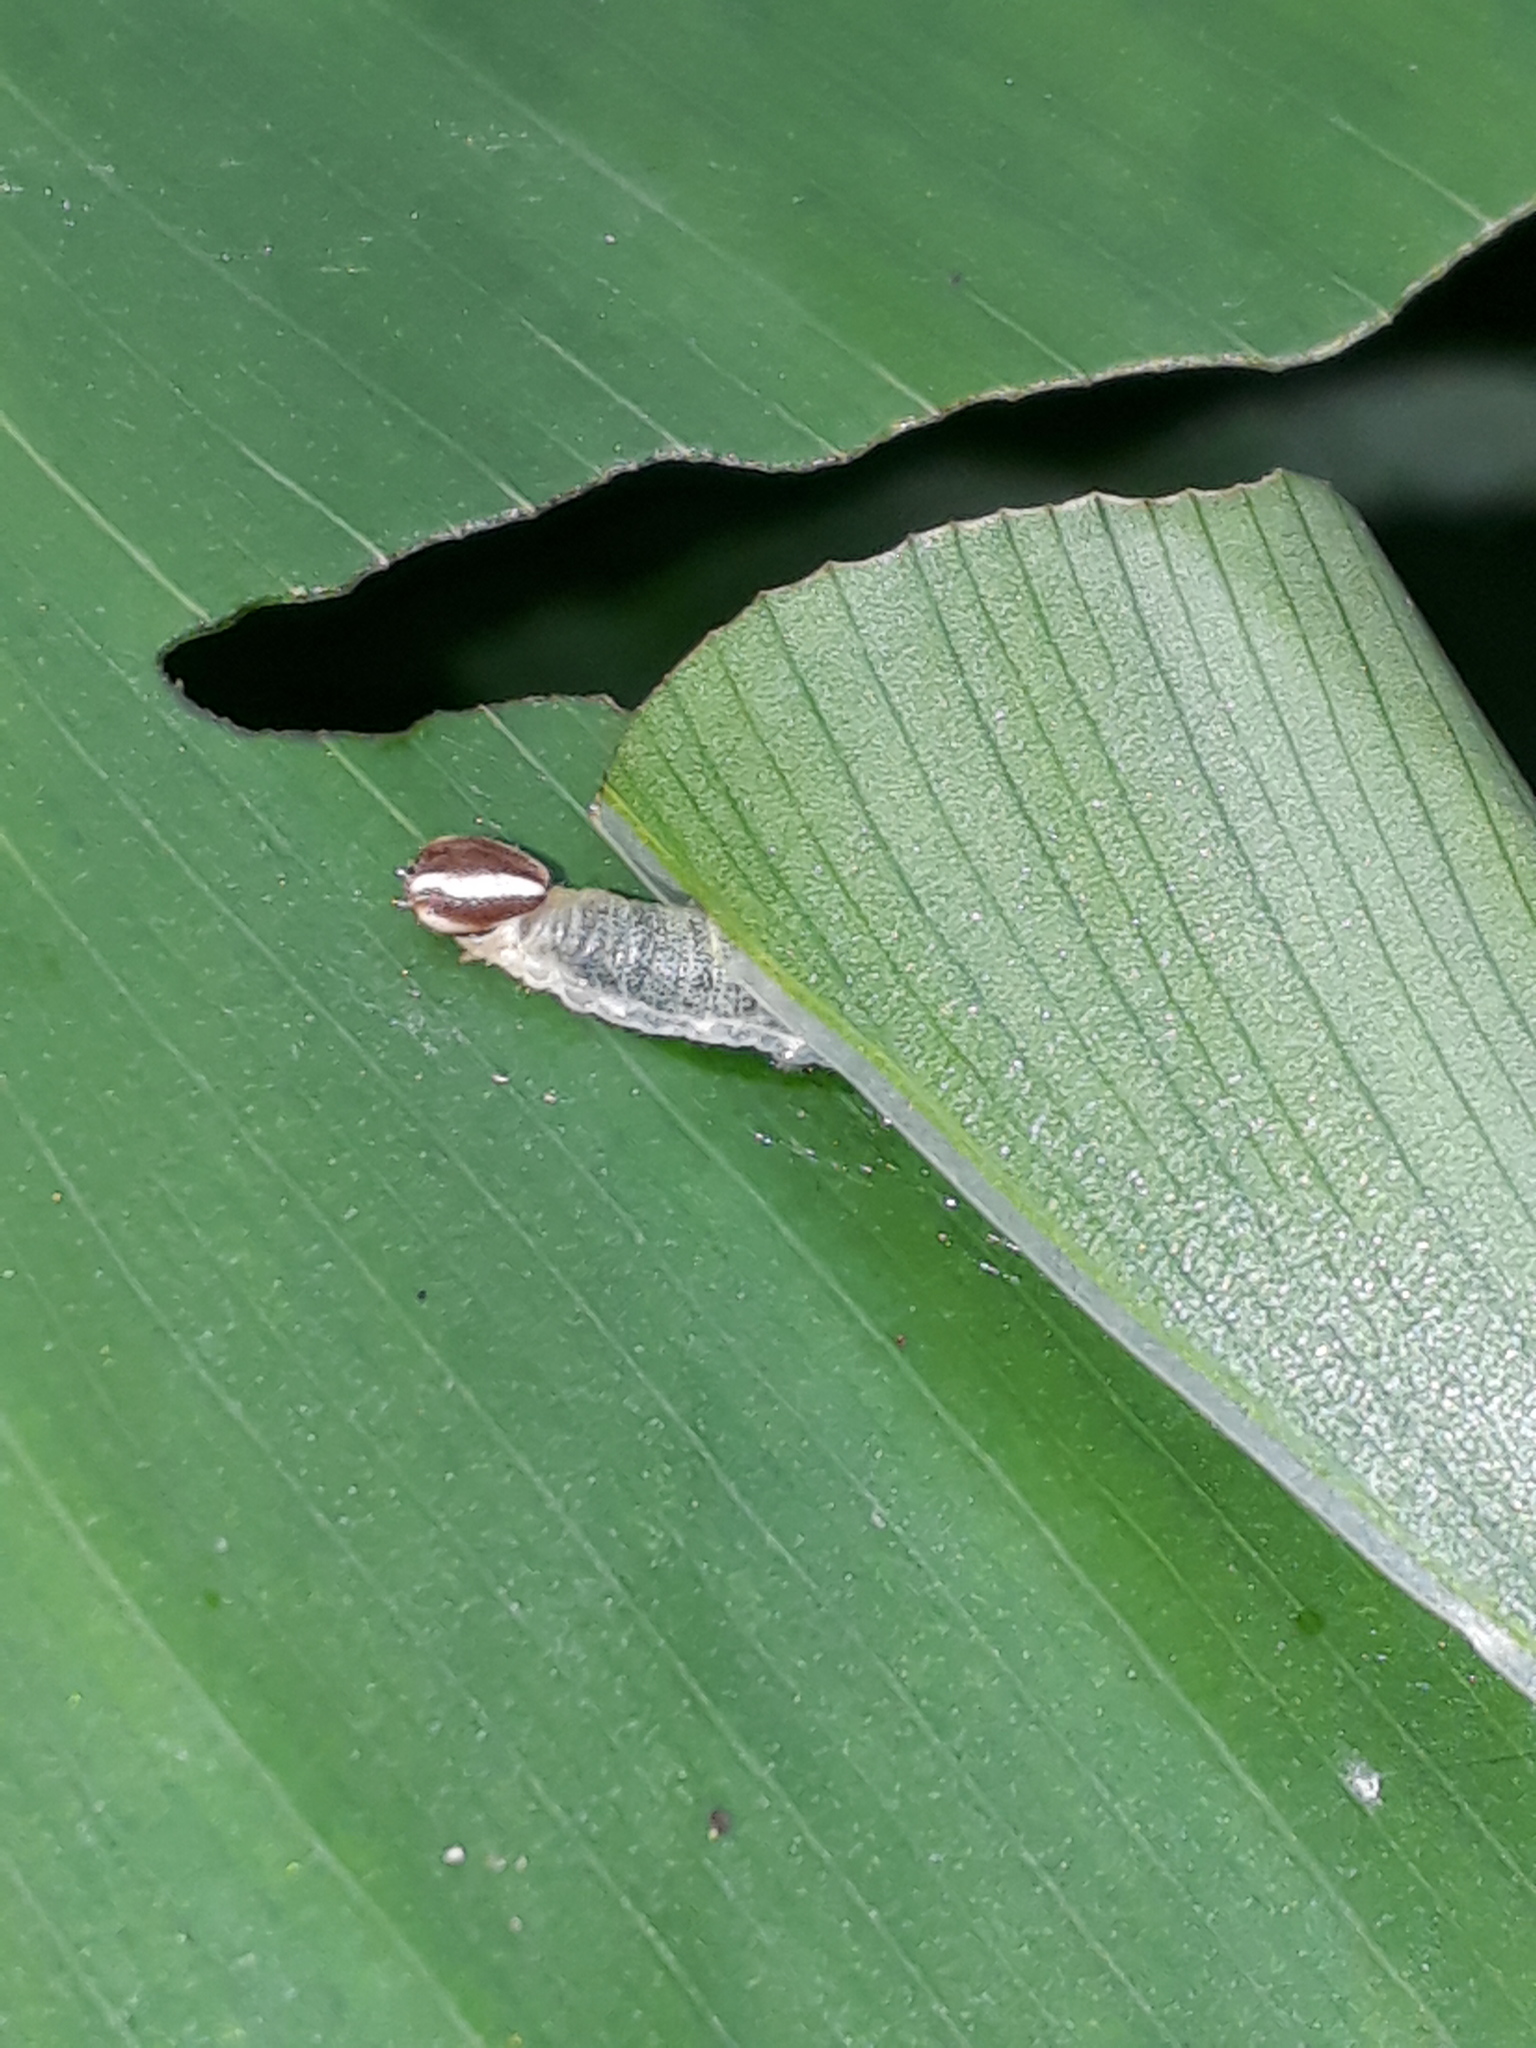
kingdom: Animalia
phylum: Arthropoda
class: Insecta
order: Lepidoptera
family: Hesperiidae
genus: Quinta
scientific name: Quinta cannae
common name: Canna skipper
